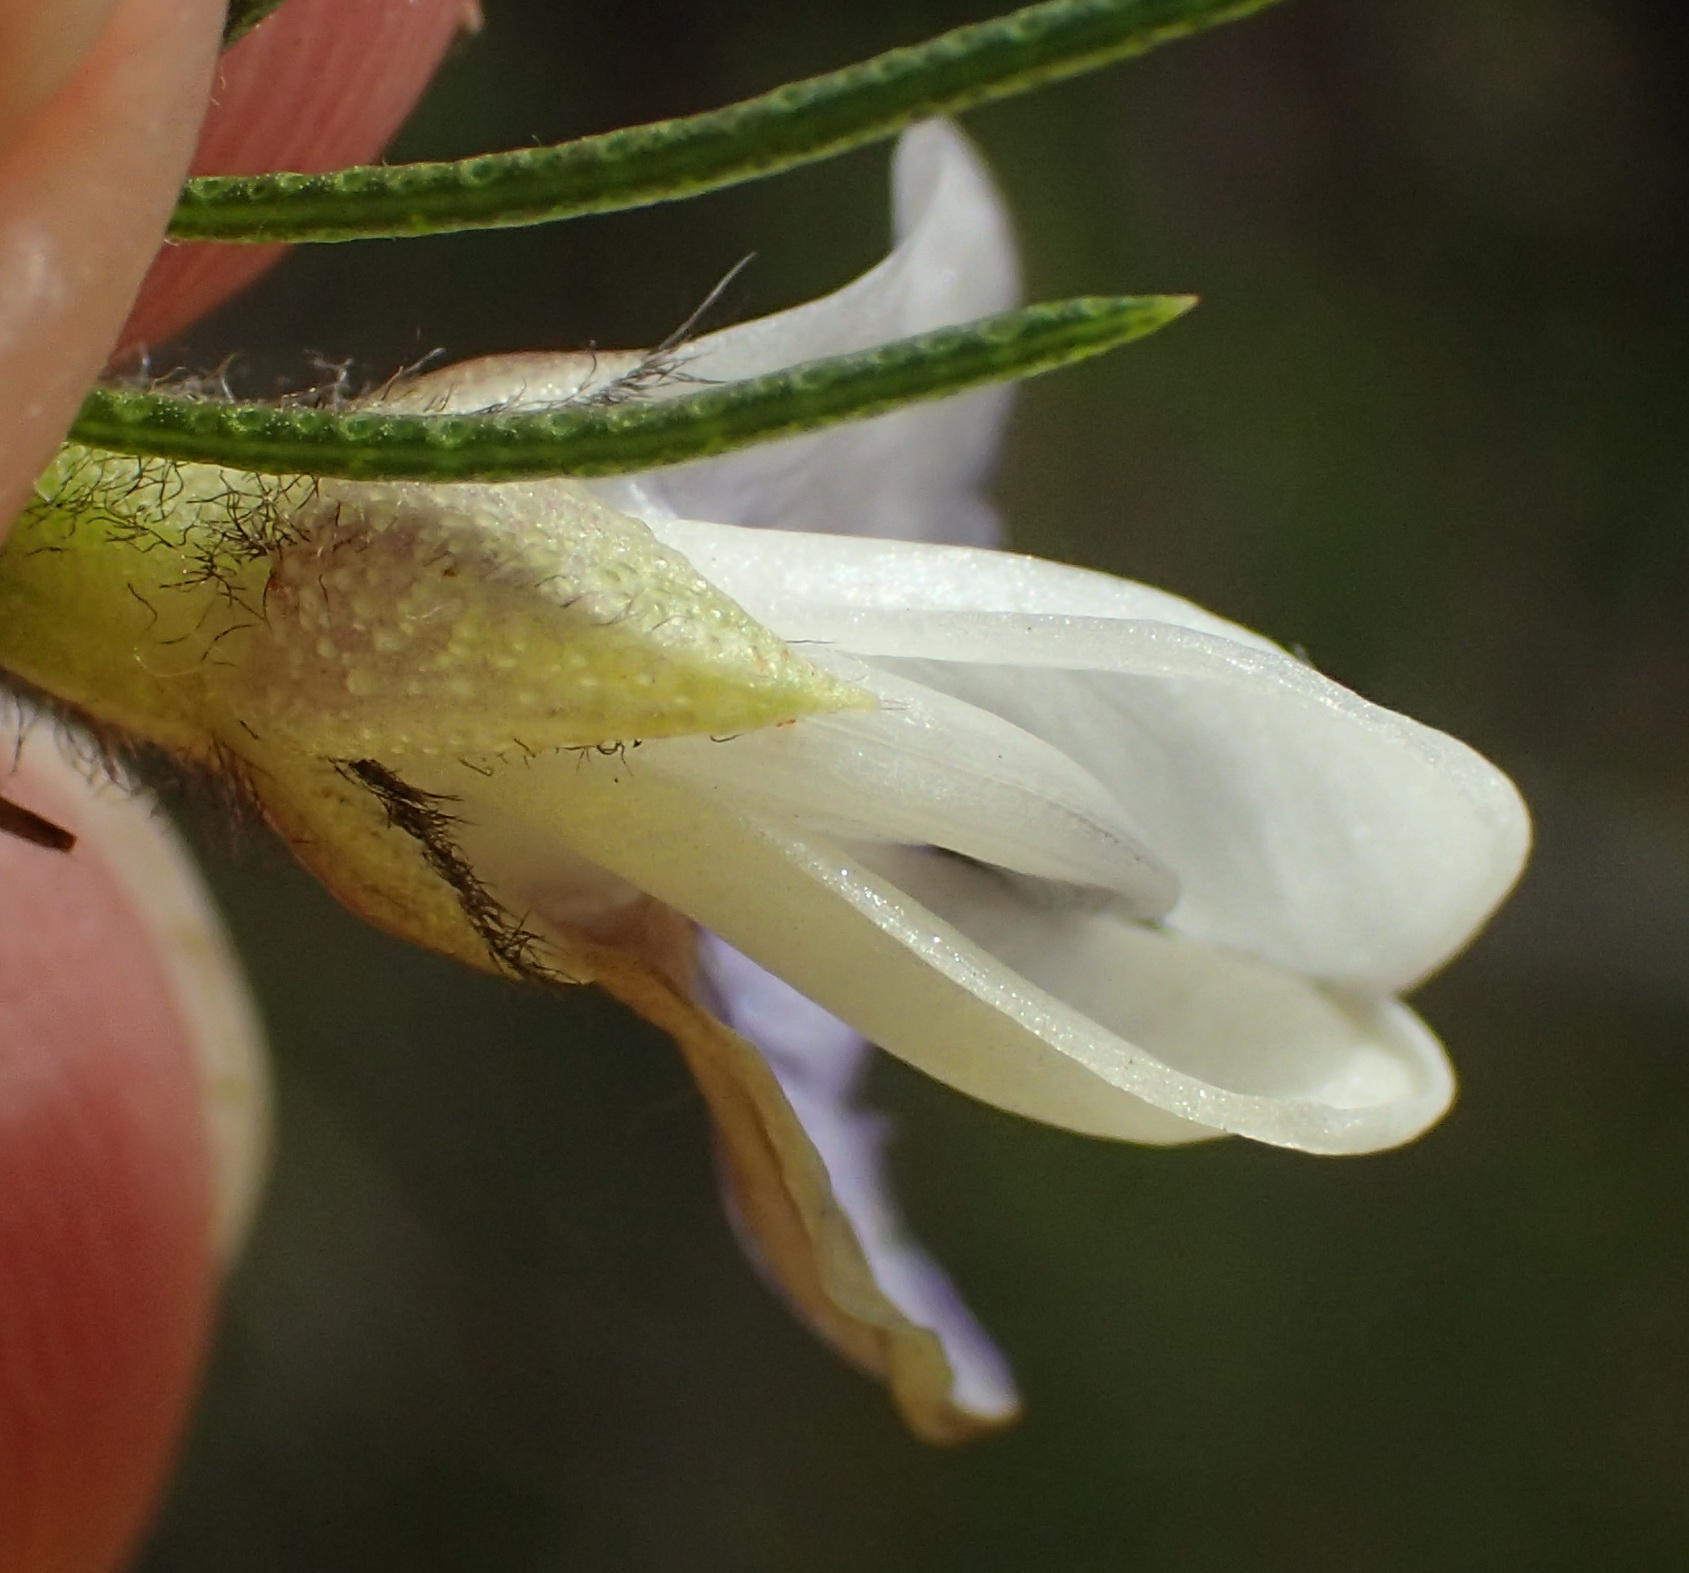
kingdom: Plantae
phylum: Tracheophyta
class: Magnoliopsida
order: Fabales
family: Fabaceae
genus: Psoralea
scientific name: Psoralea floccosa
